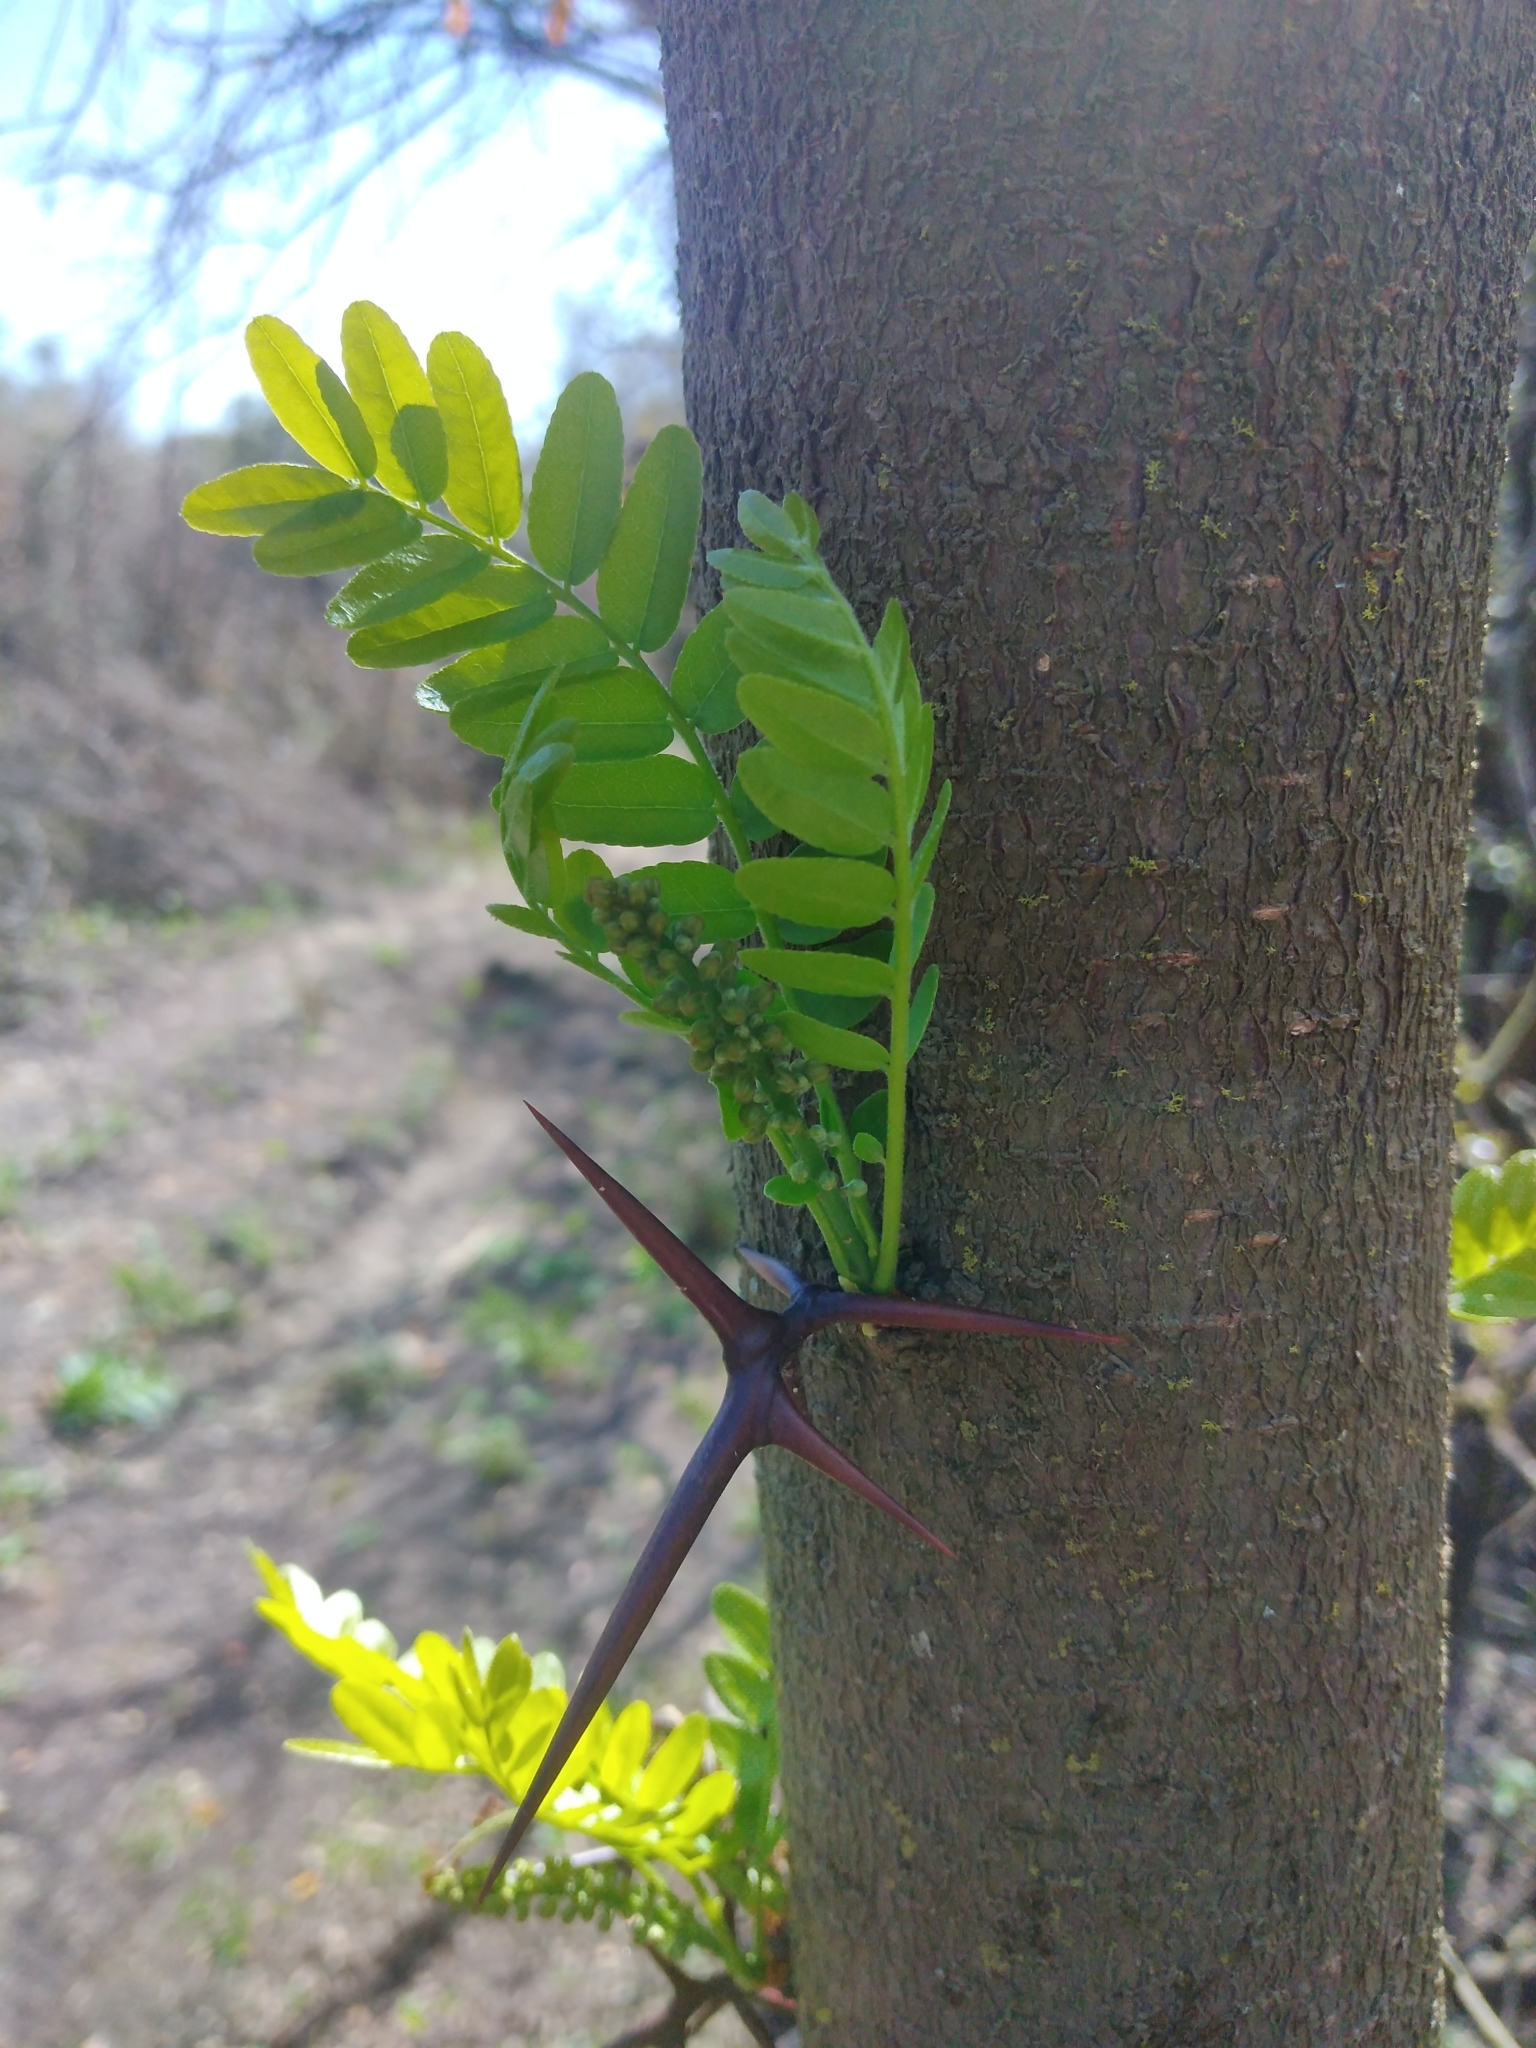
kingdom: Plantae
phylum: Tracheophyta
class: Magnoliopsida
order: Fabales
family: Fabaceae
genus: Gleditsia
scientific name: Gleditsia triacanthos
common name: Common honeylocust
